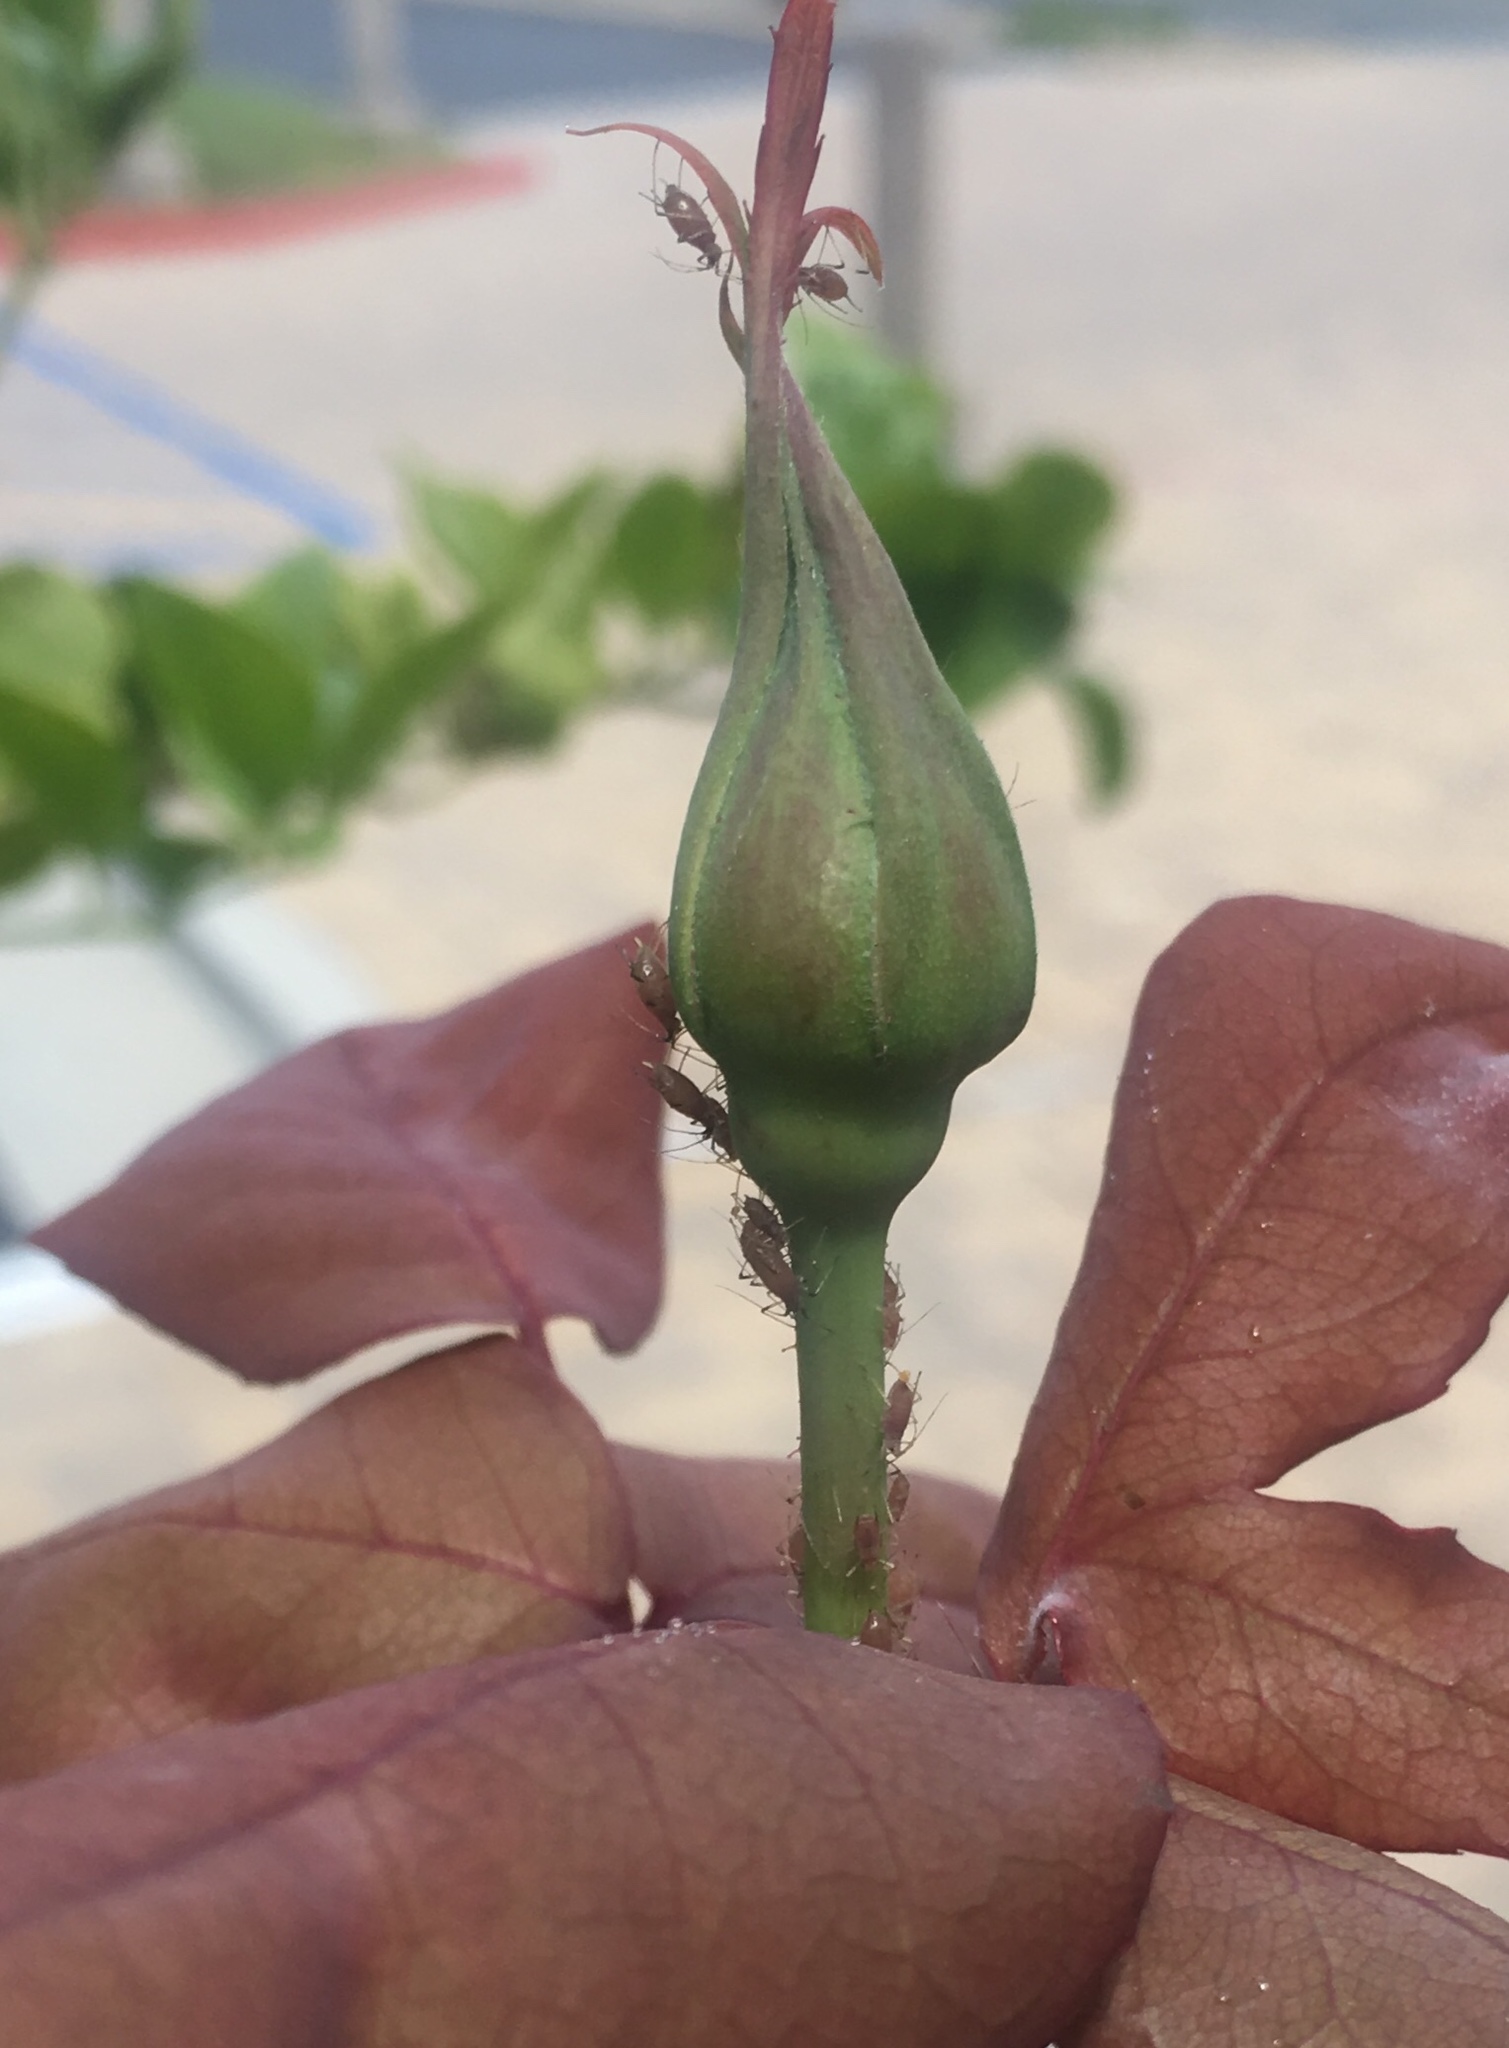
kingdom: Animalia
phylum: Arthropoda
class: Insecta
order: Hemiptera
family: Aphididae
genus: Macrosiphum
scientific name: Macrosiphum rosae
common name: Rose aphid
